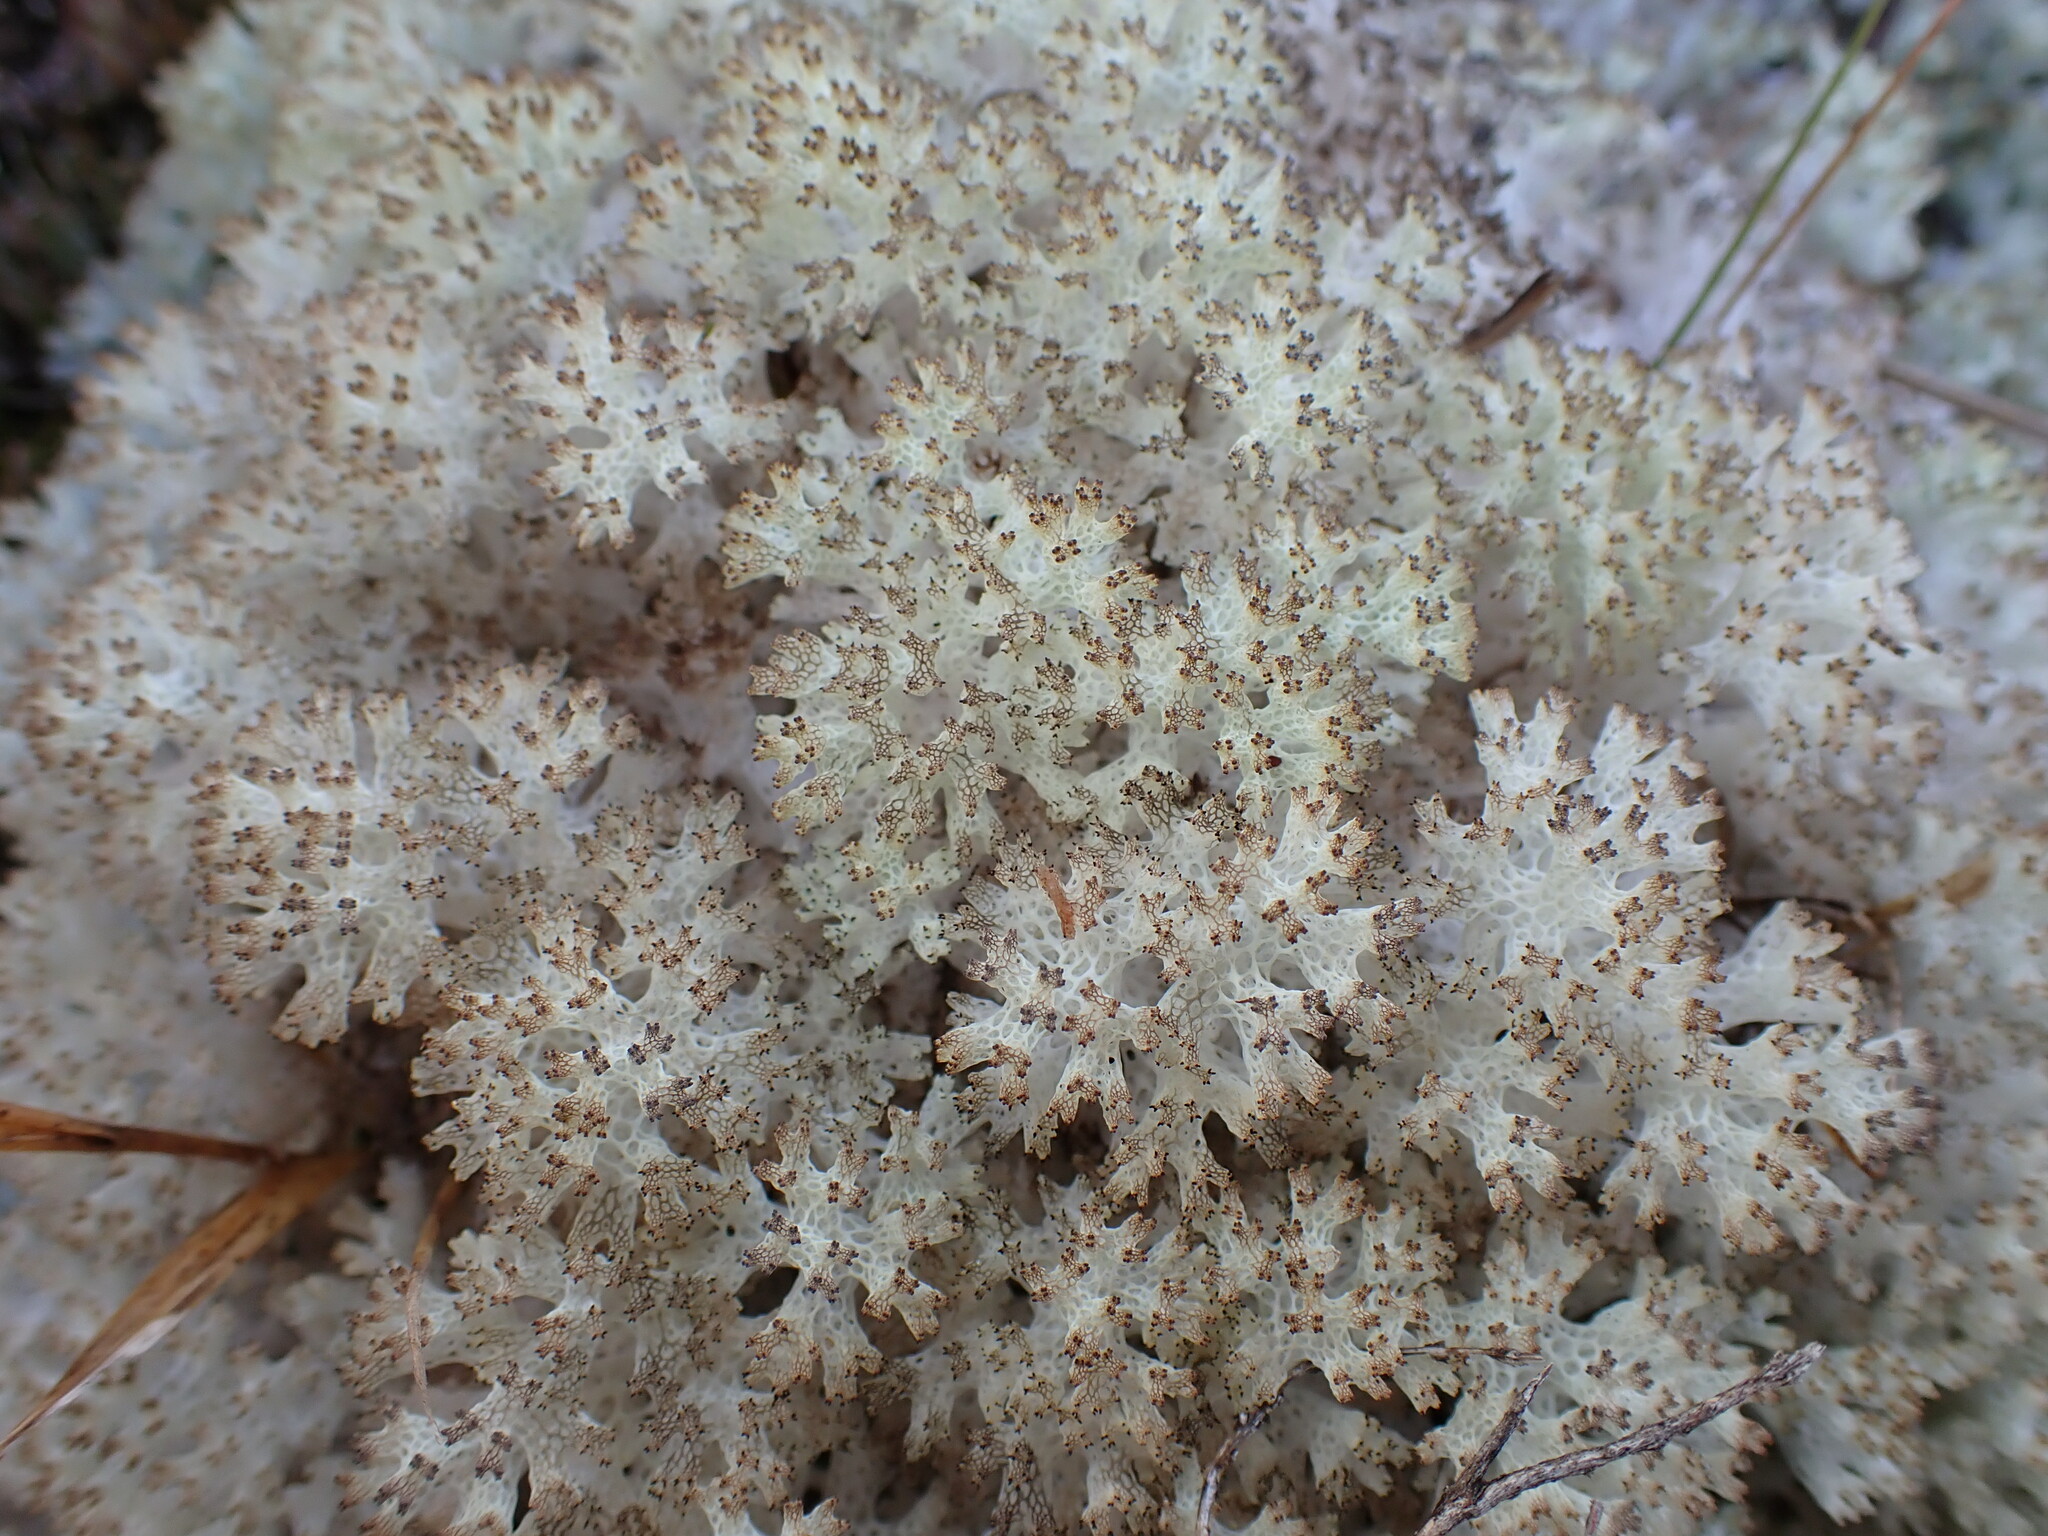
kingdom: Fungi
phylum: Ascomycota
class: Lecanoromycetes
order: Lecanorales
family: Cladoniaceae
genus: Pulchrocladia
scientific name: Pulchrocladia retipora
